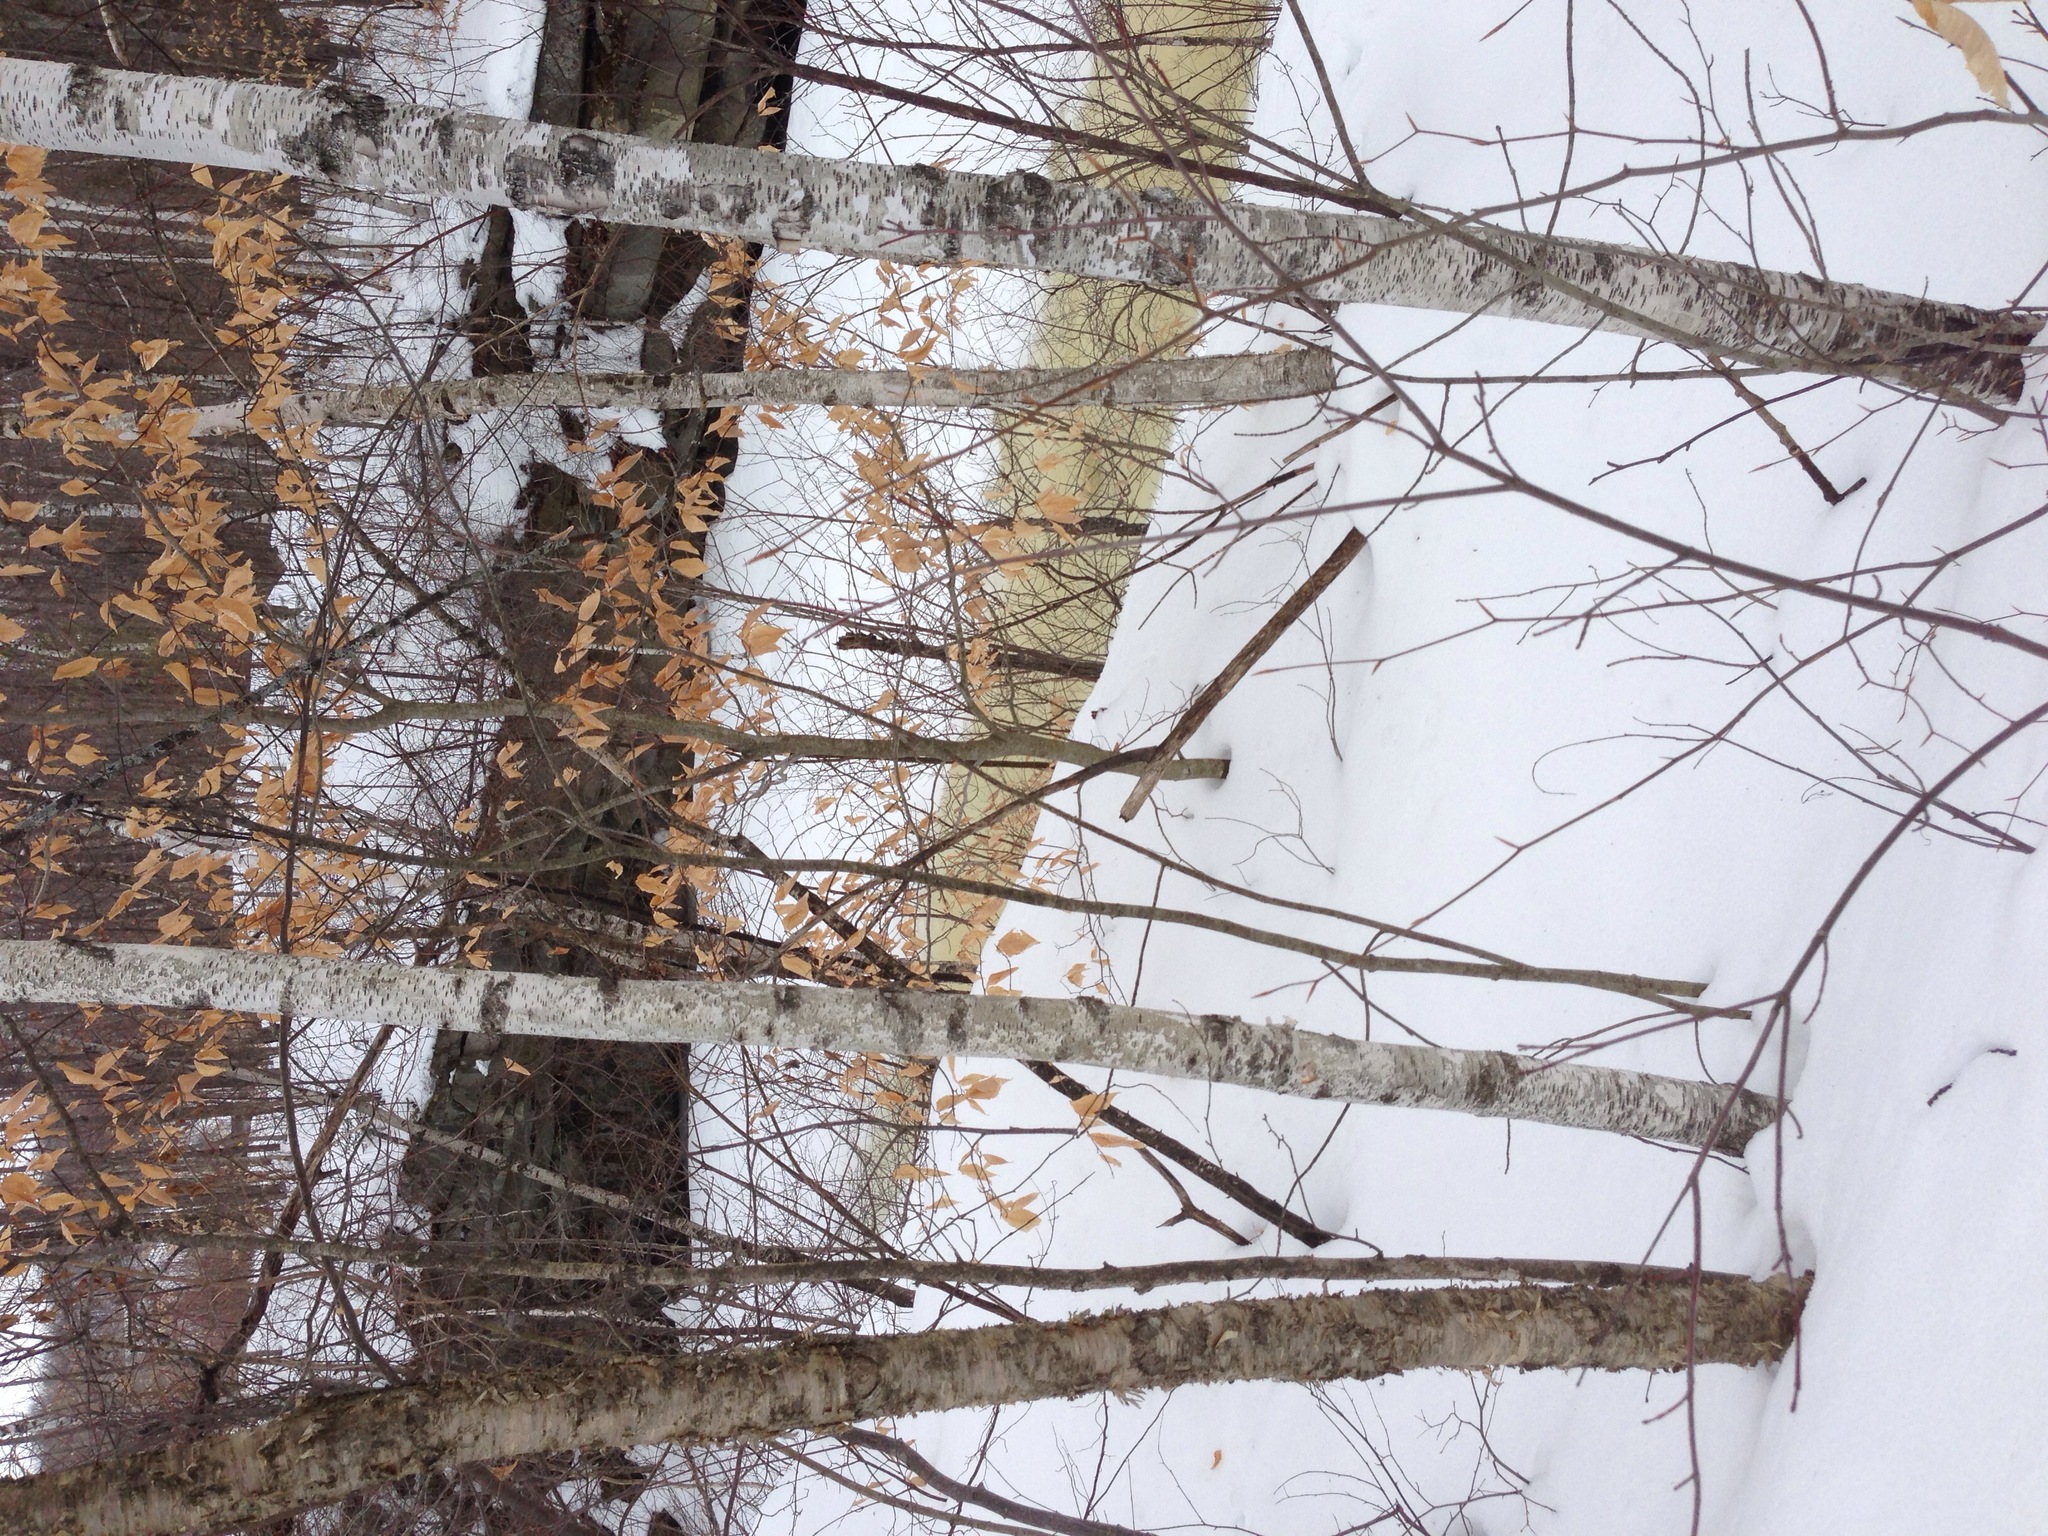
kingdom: Plantae
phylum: Tracheophyta
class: Magnoliopsida
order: Fagales
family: Betulaceae
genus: Betula
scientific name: Betula populifolia
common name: Fire birch
